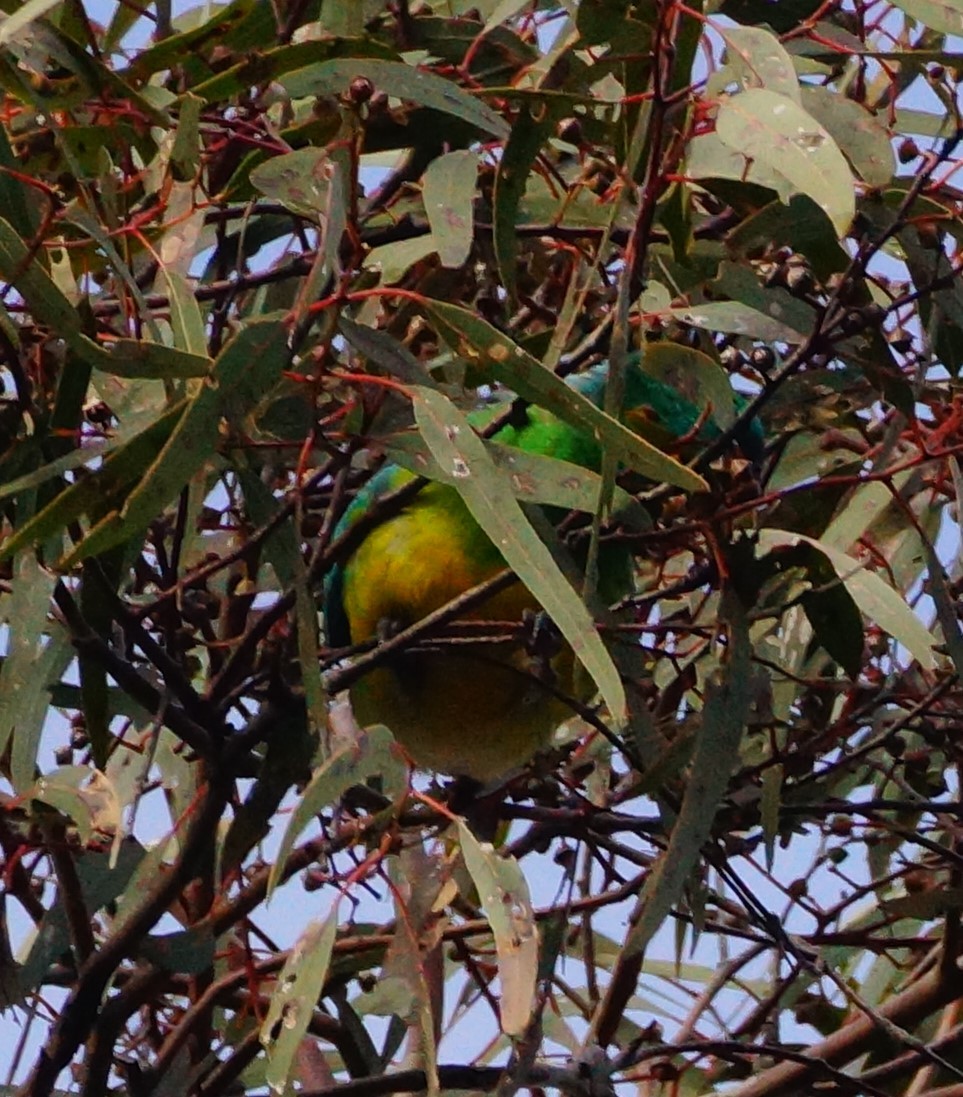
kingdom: Animalia
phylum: Chordata
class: Aves
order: Psittaciformes
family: Psittacidae
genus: Psephotus
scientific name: Psephotus haematonotus
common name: Red-rumped parrot
